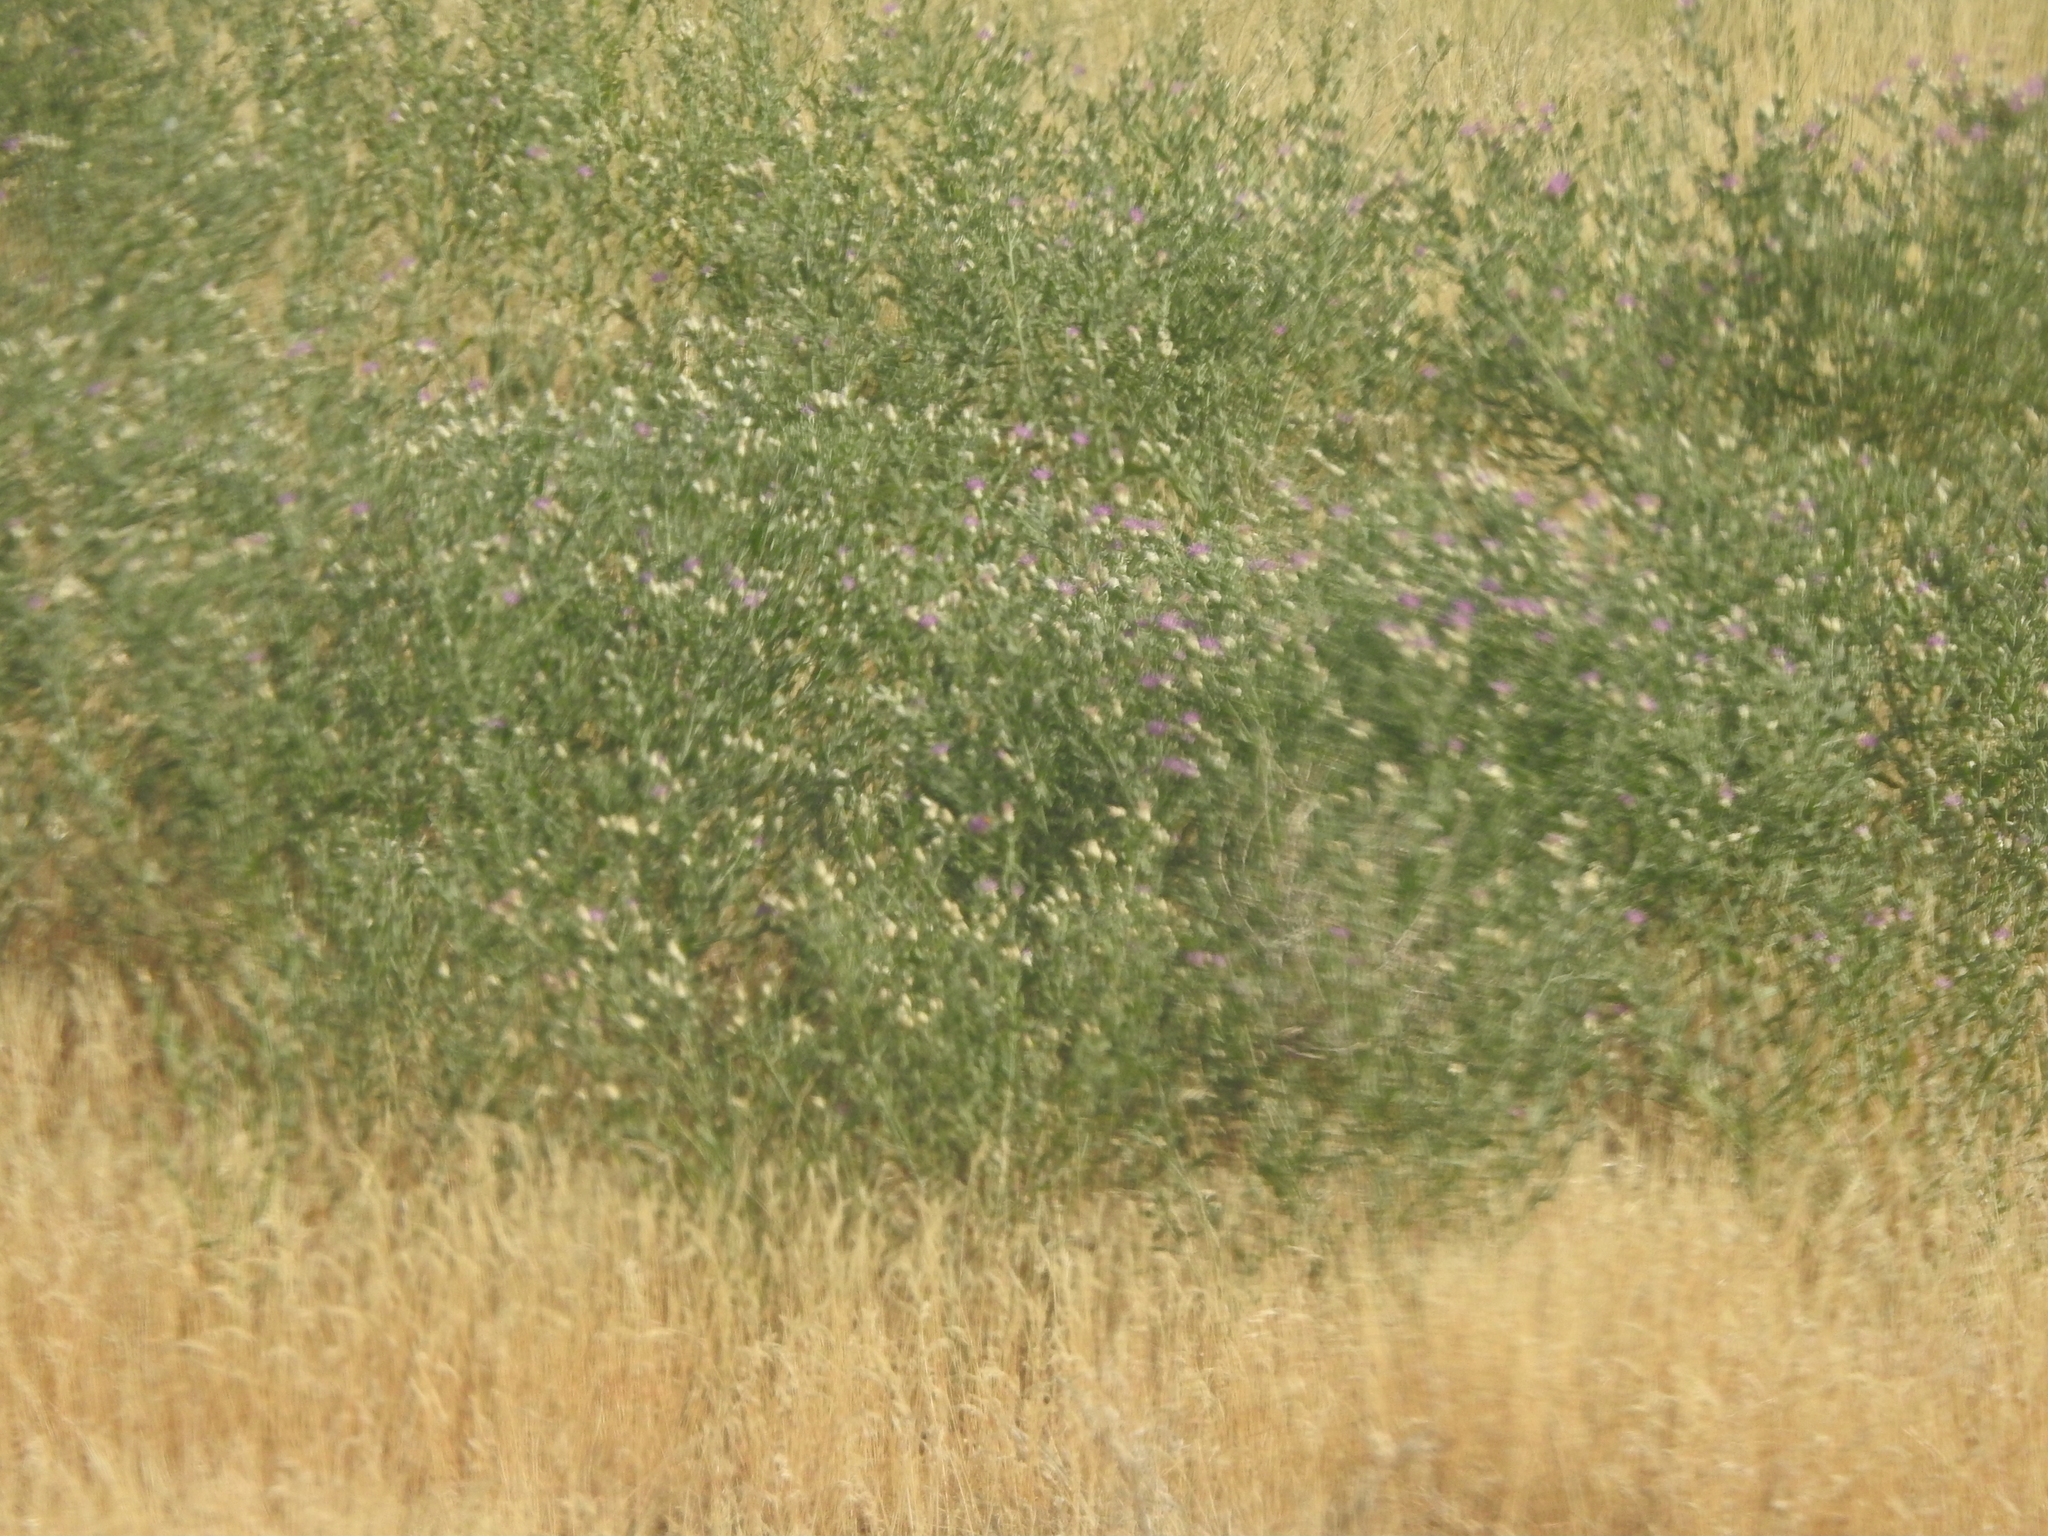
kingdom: Plantae
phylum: Tracheophyta
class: Magnoliopsida
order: Asterales
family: Asteraceae
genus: Leuzea
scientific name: Leuzea repens
